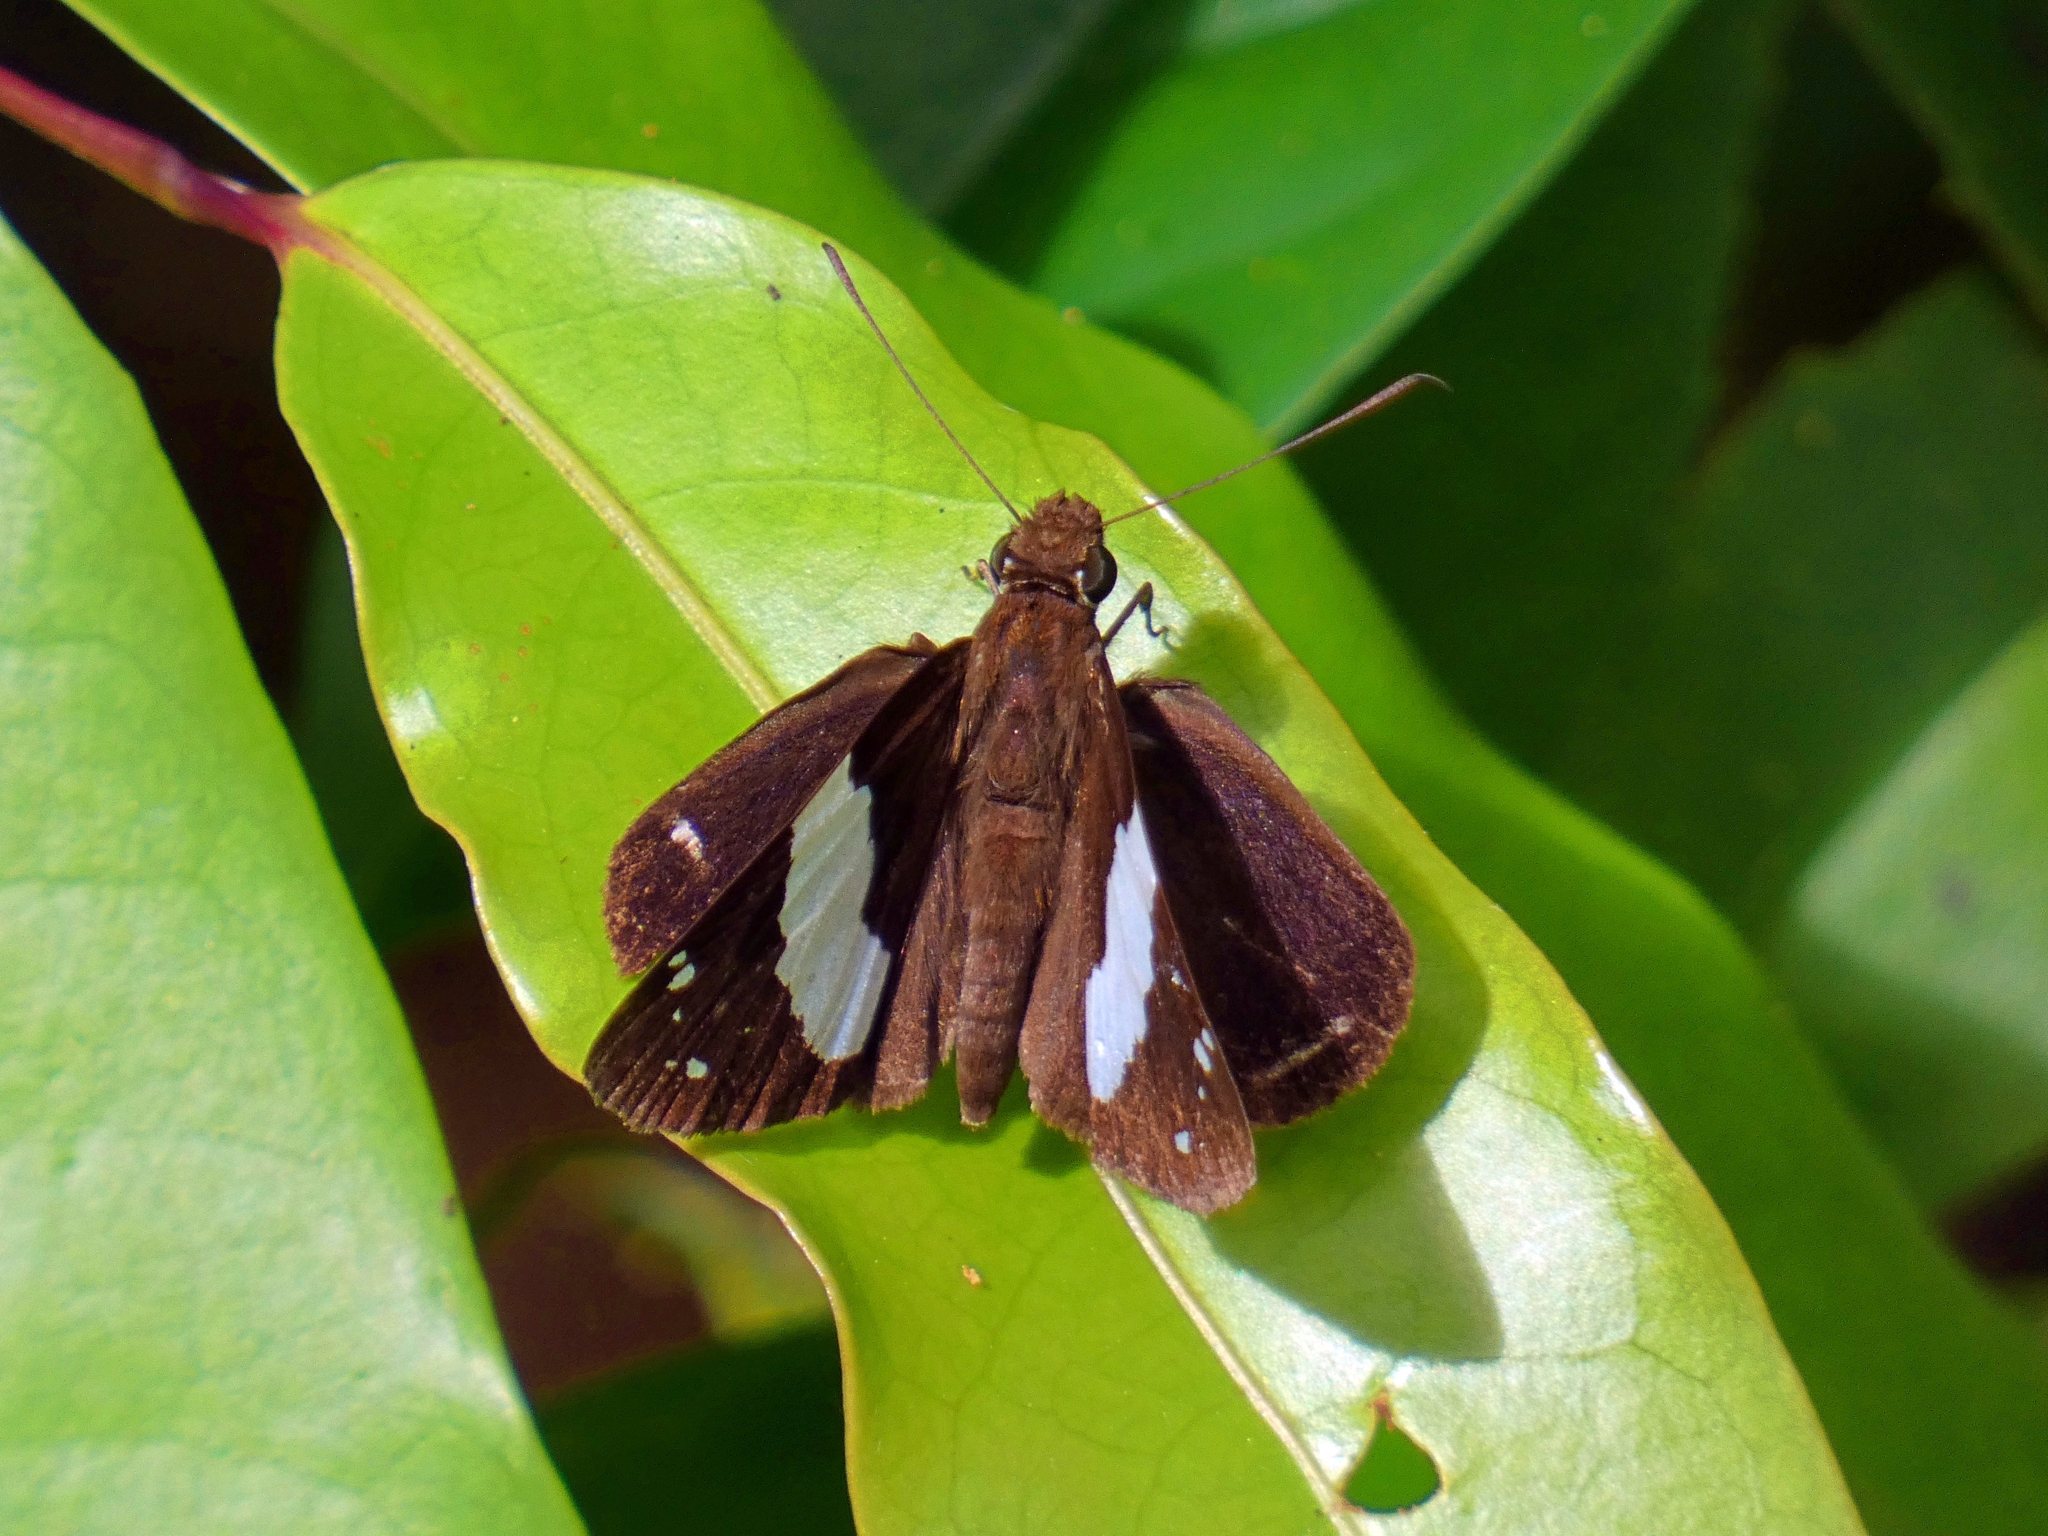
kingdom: Animalia
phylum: Arthropoda
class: Insecta
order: Lepidoptera
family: Hesperiidae
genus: Notocrypta
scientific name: Notocrypta waigensis
